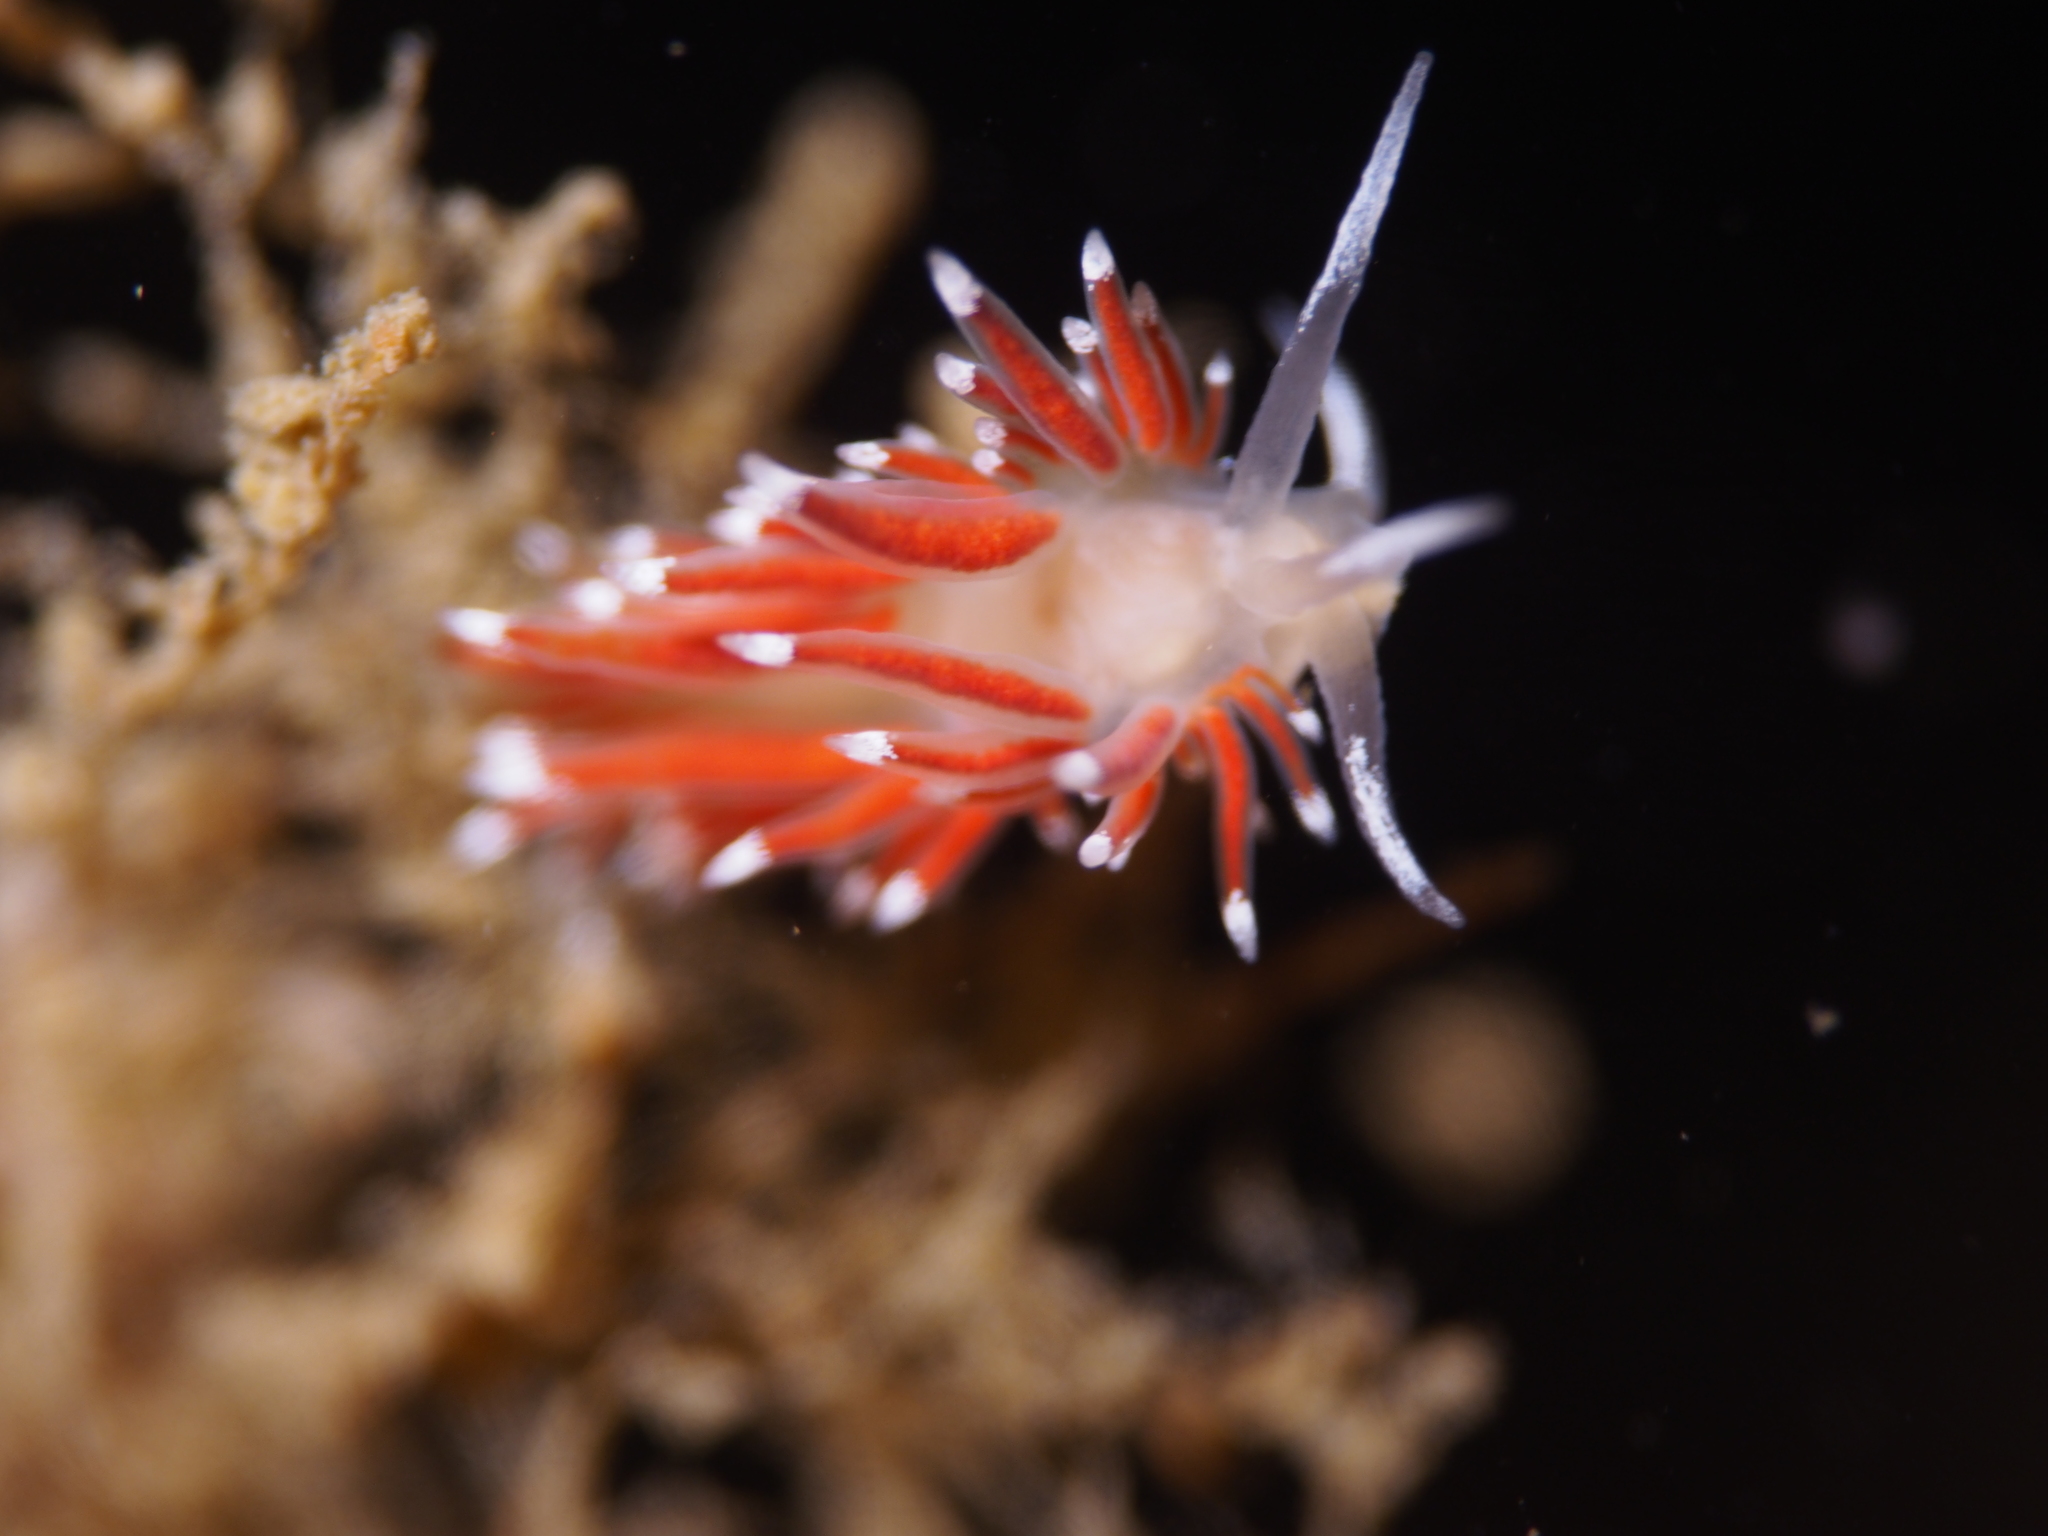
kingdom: Animalia
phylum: Mollusca
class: Gastropoda
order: Nudibranchia
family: Coryphellidae
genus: Coryphella
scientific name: Coryphella gracilis
